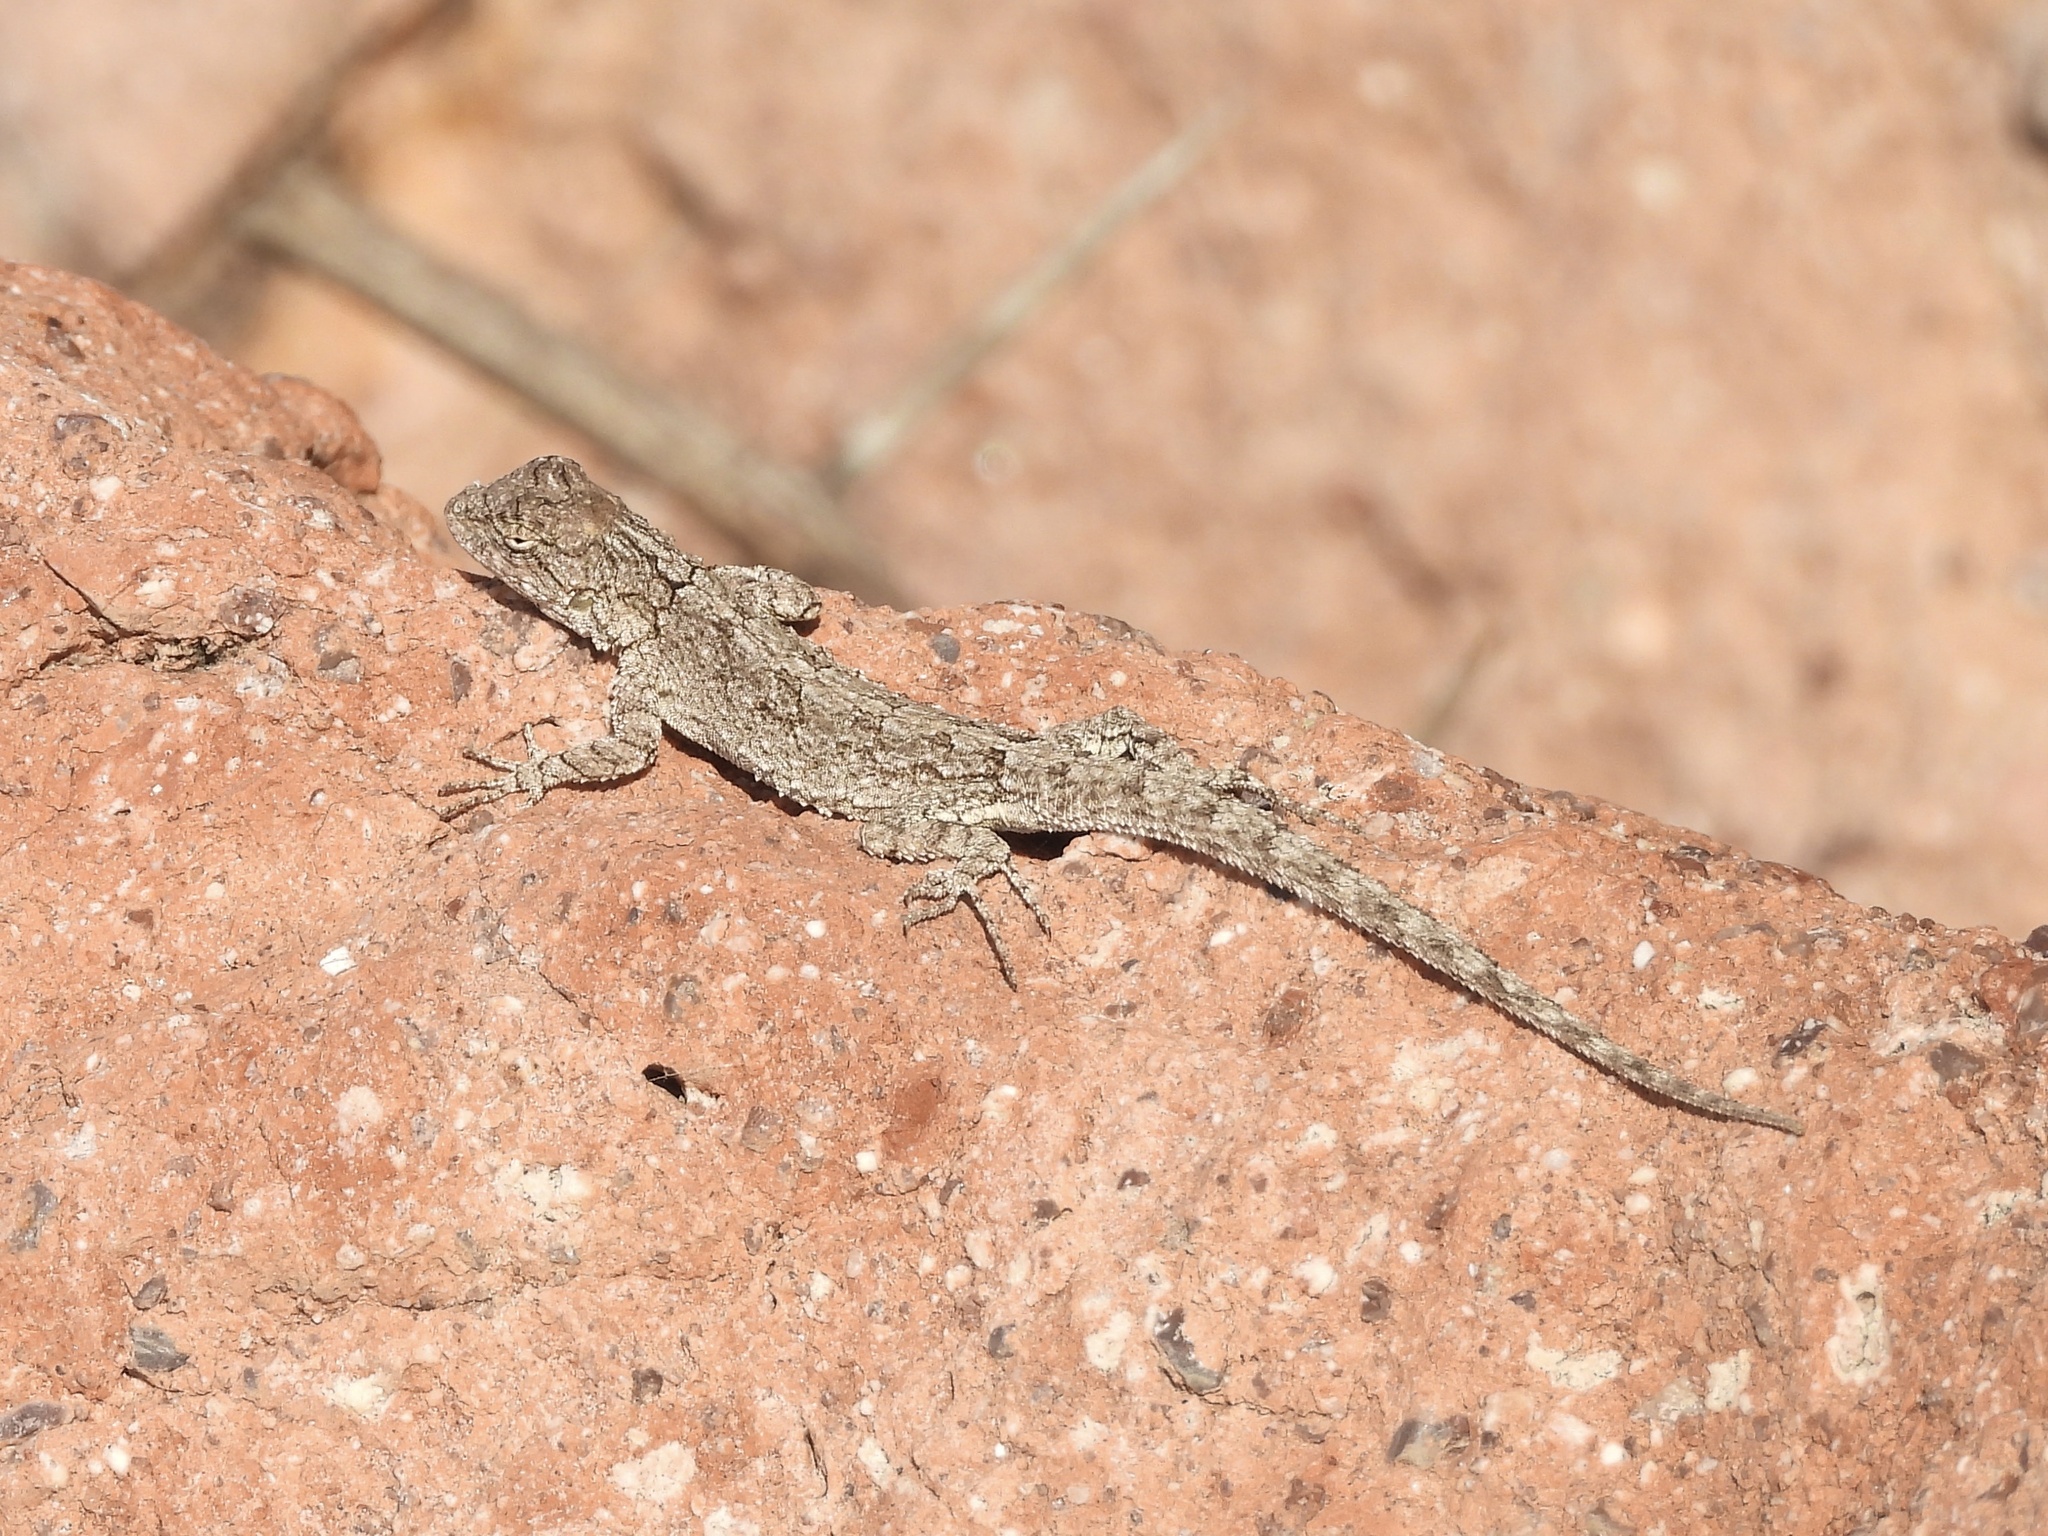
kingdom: Animalia
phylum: Chordata
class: Squamata
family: Phrynosomatidae
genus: Urosaurus
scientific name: Urosaurus bicarinatus
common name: Tropical tree lizard
